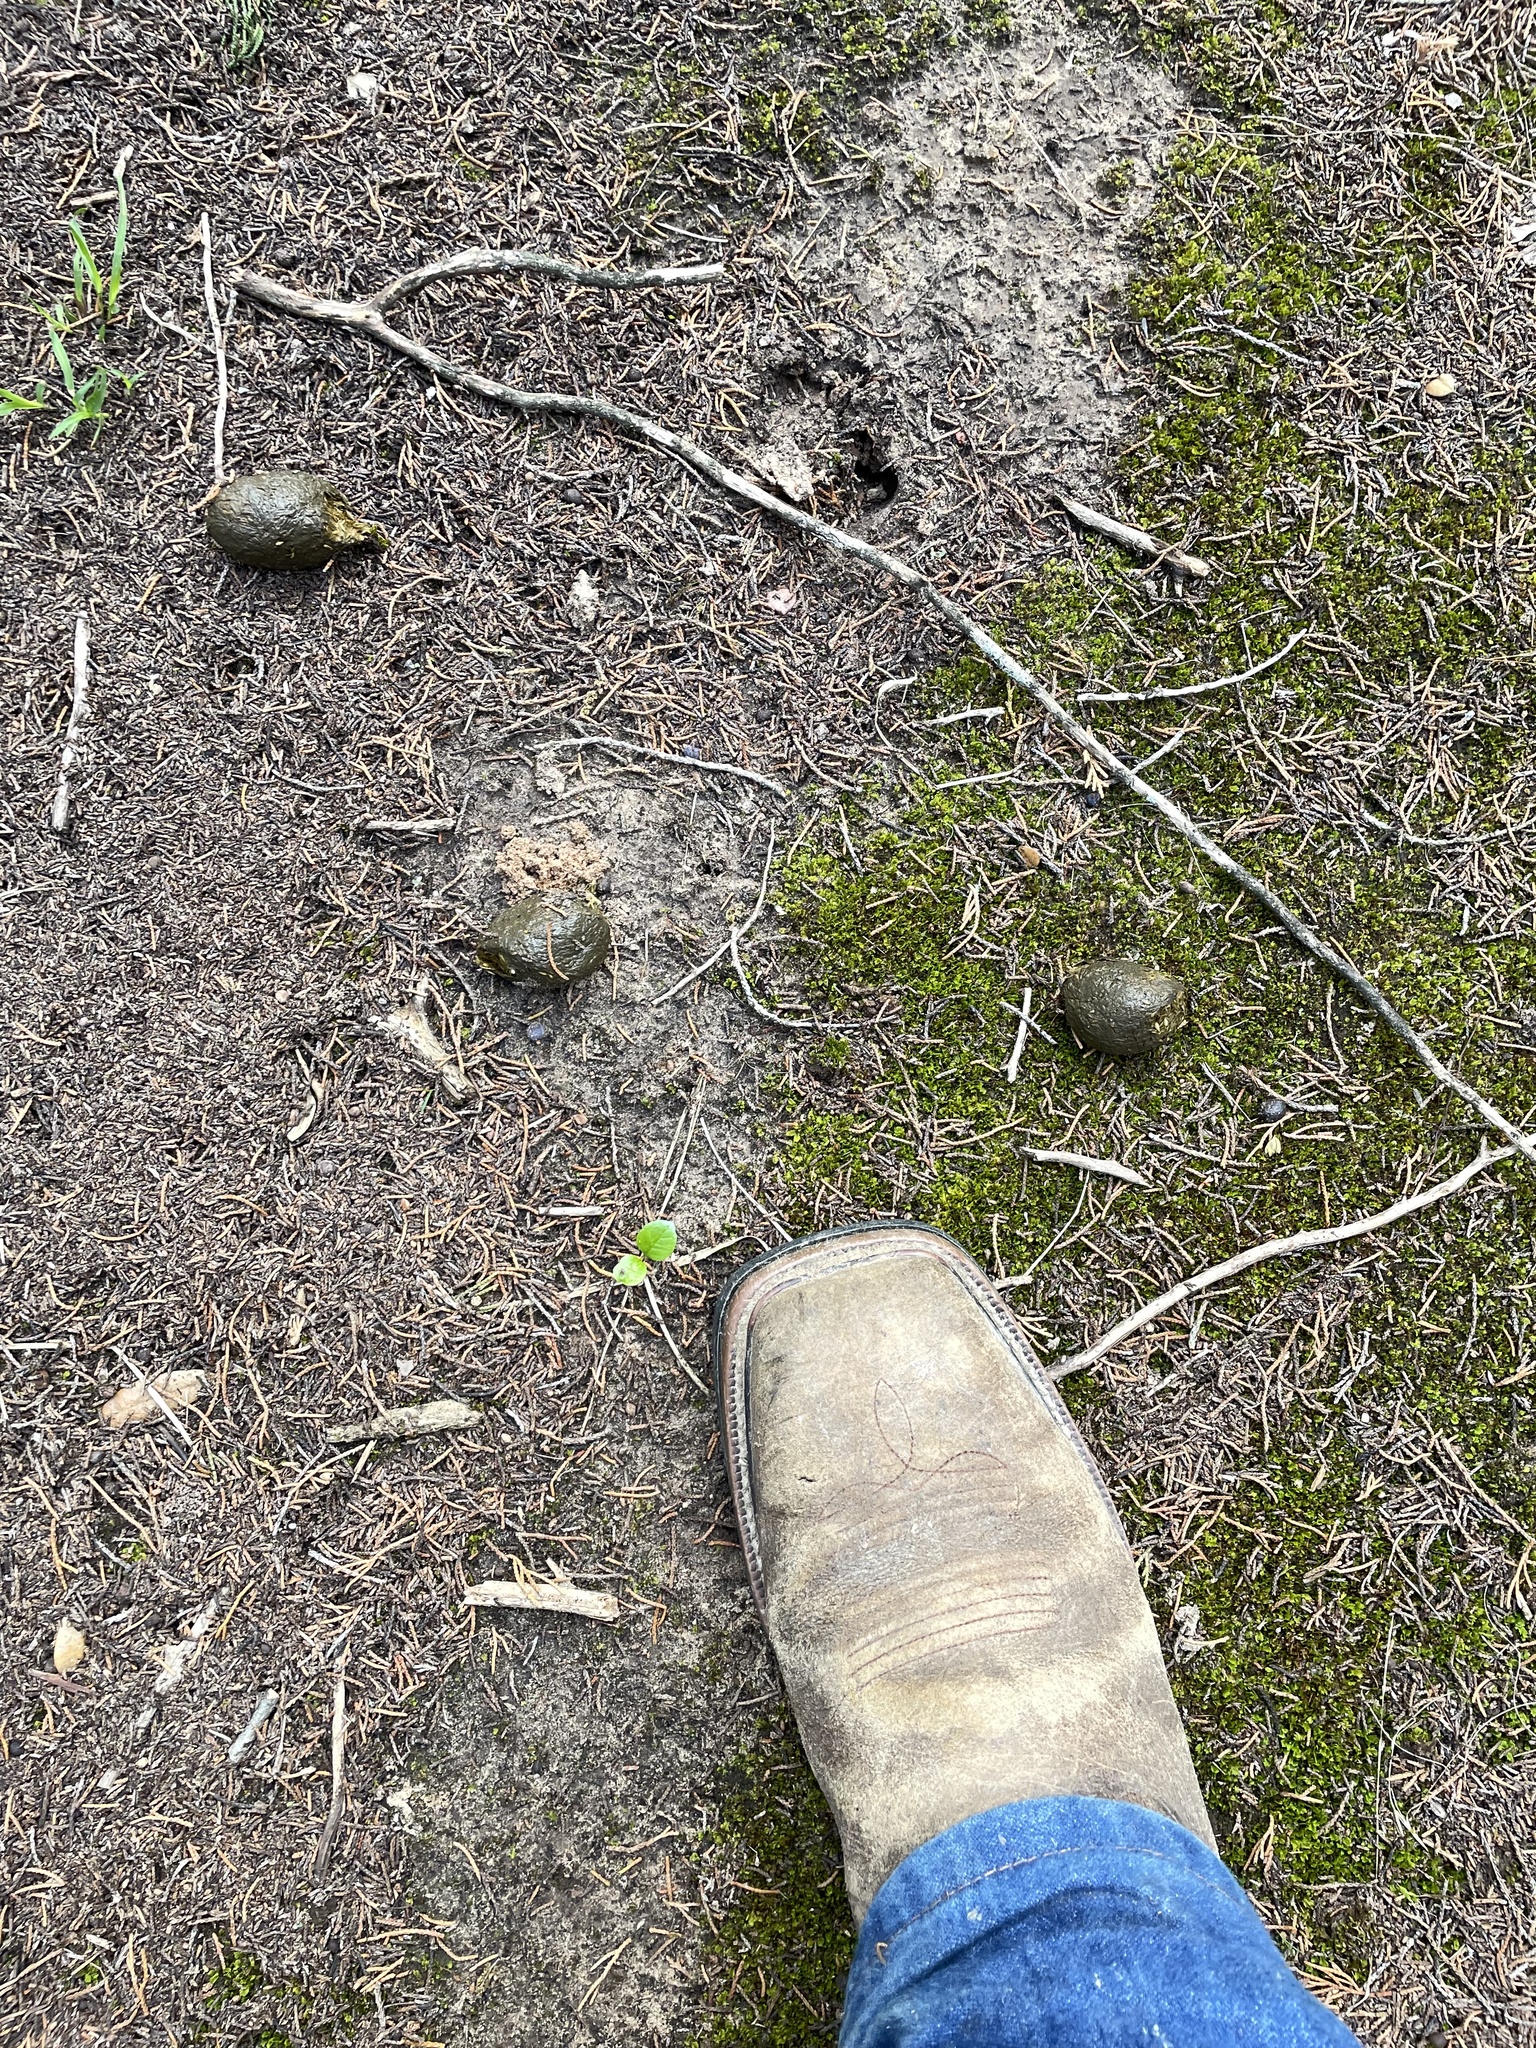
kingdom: Animalia
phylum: Chordata
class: Mammalia
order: Artiodactyla
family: Suidae
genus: Sus
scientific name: Sus scrofa
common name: Wild boar
